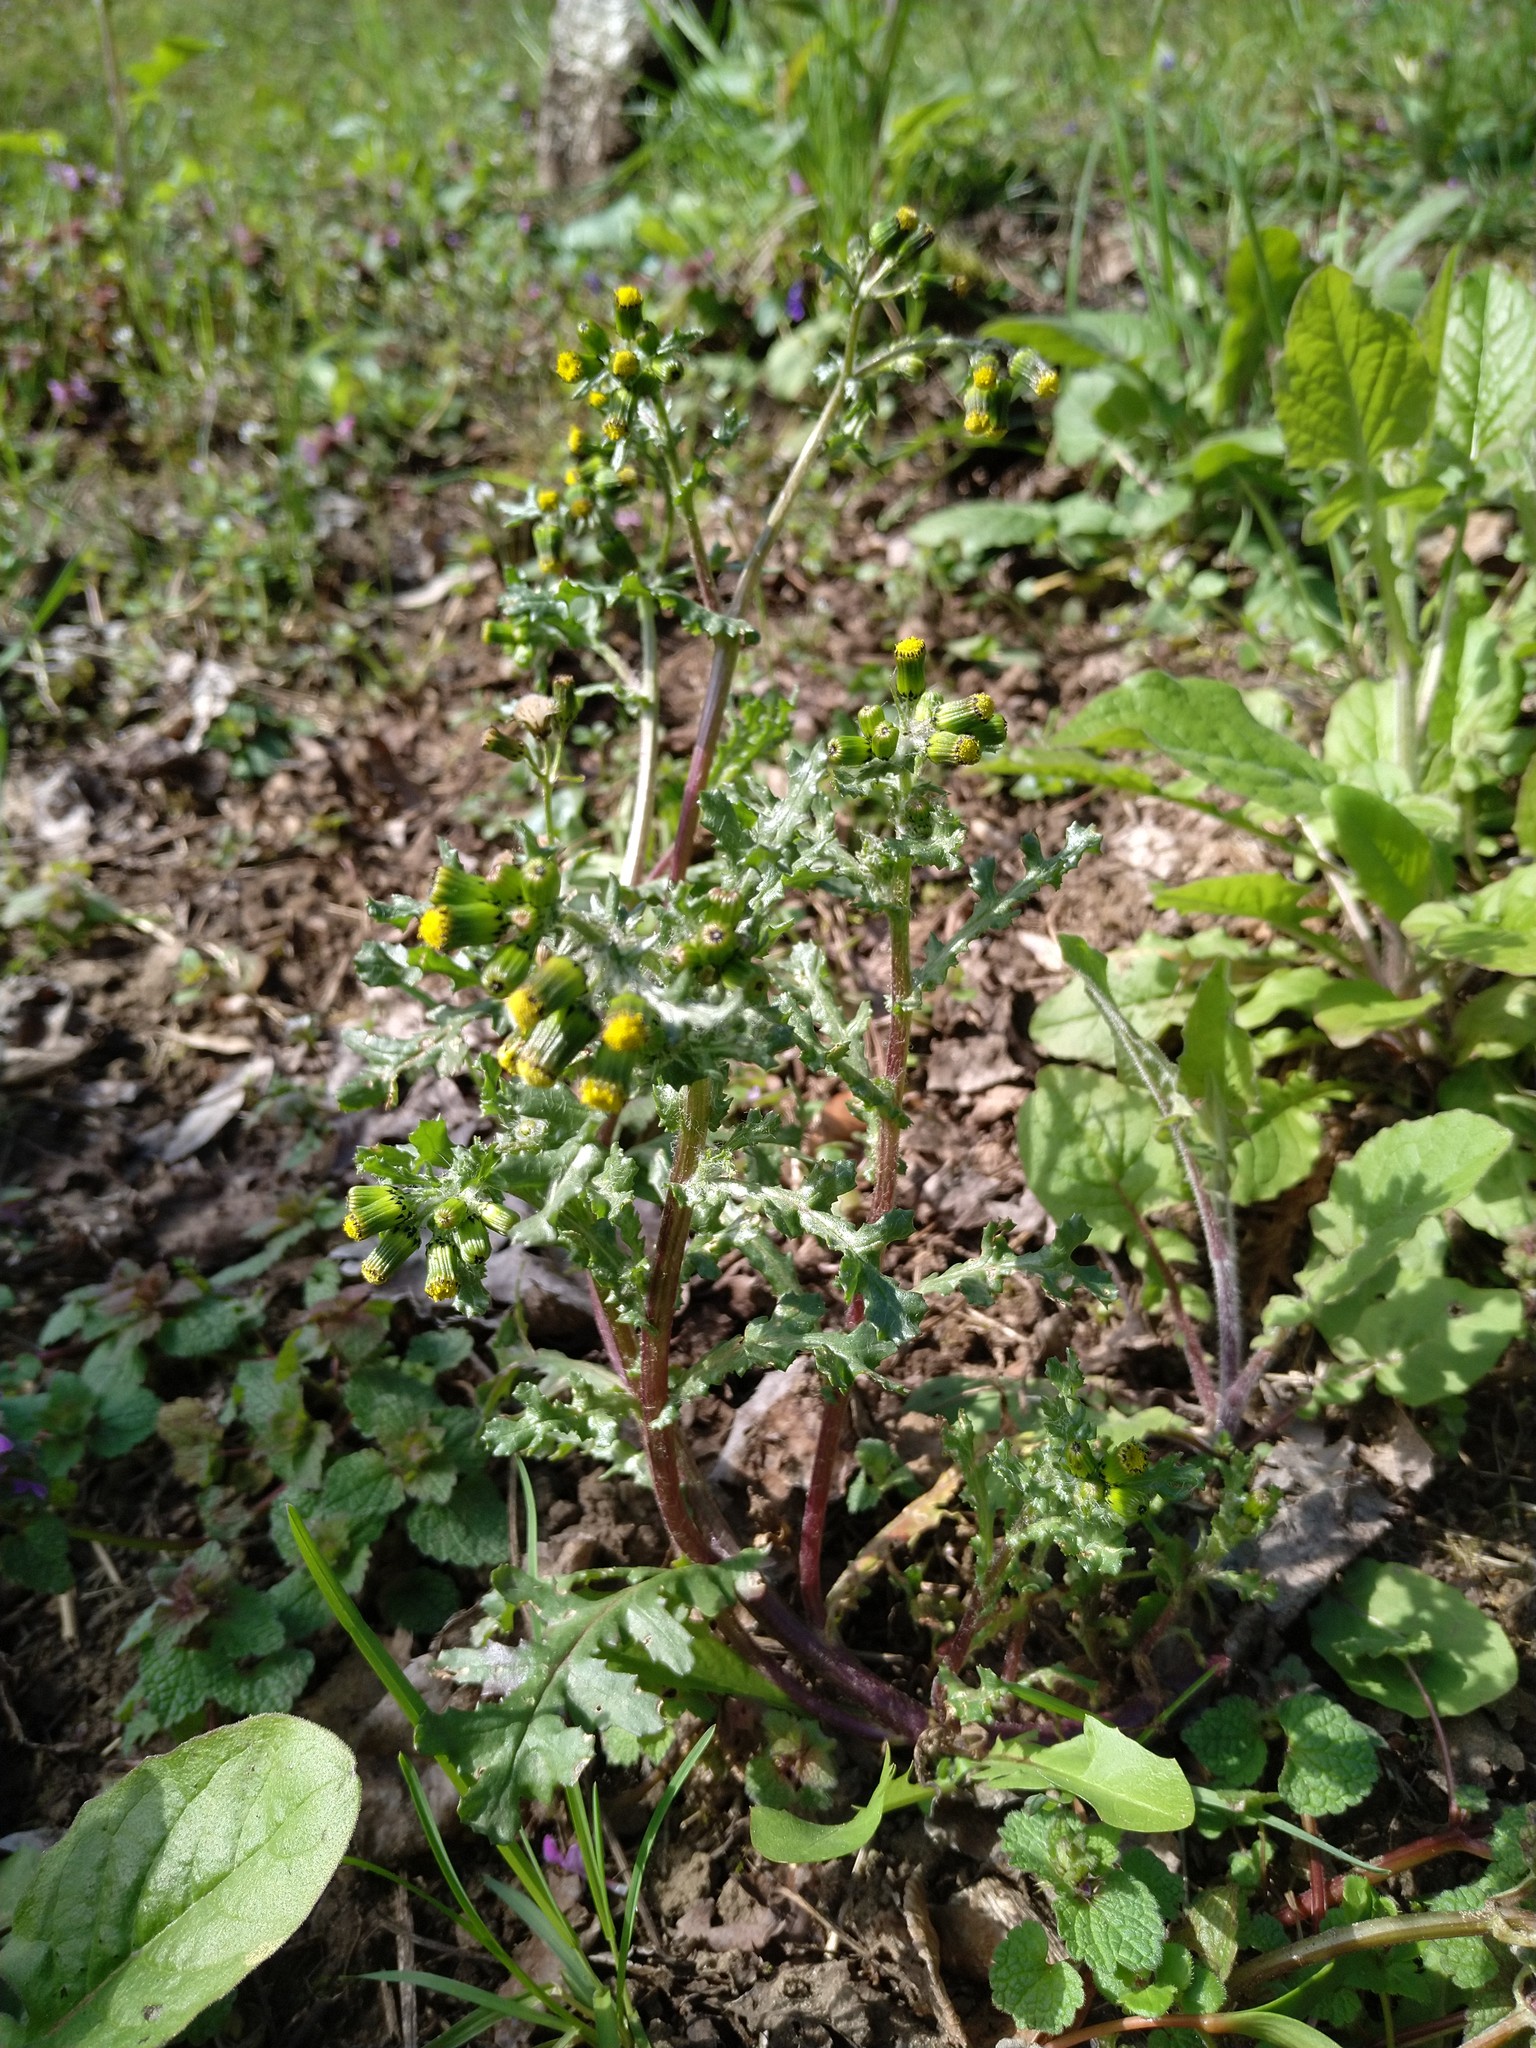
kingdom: Plantae
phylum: Tracheophyta
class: Magnoliopsida
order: Asterales
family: Asteraceae
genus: Senecio
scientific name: Senecio vulgaris
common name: Old-man-in-the-spring
